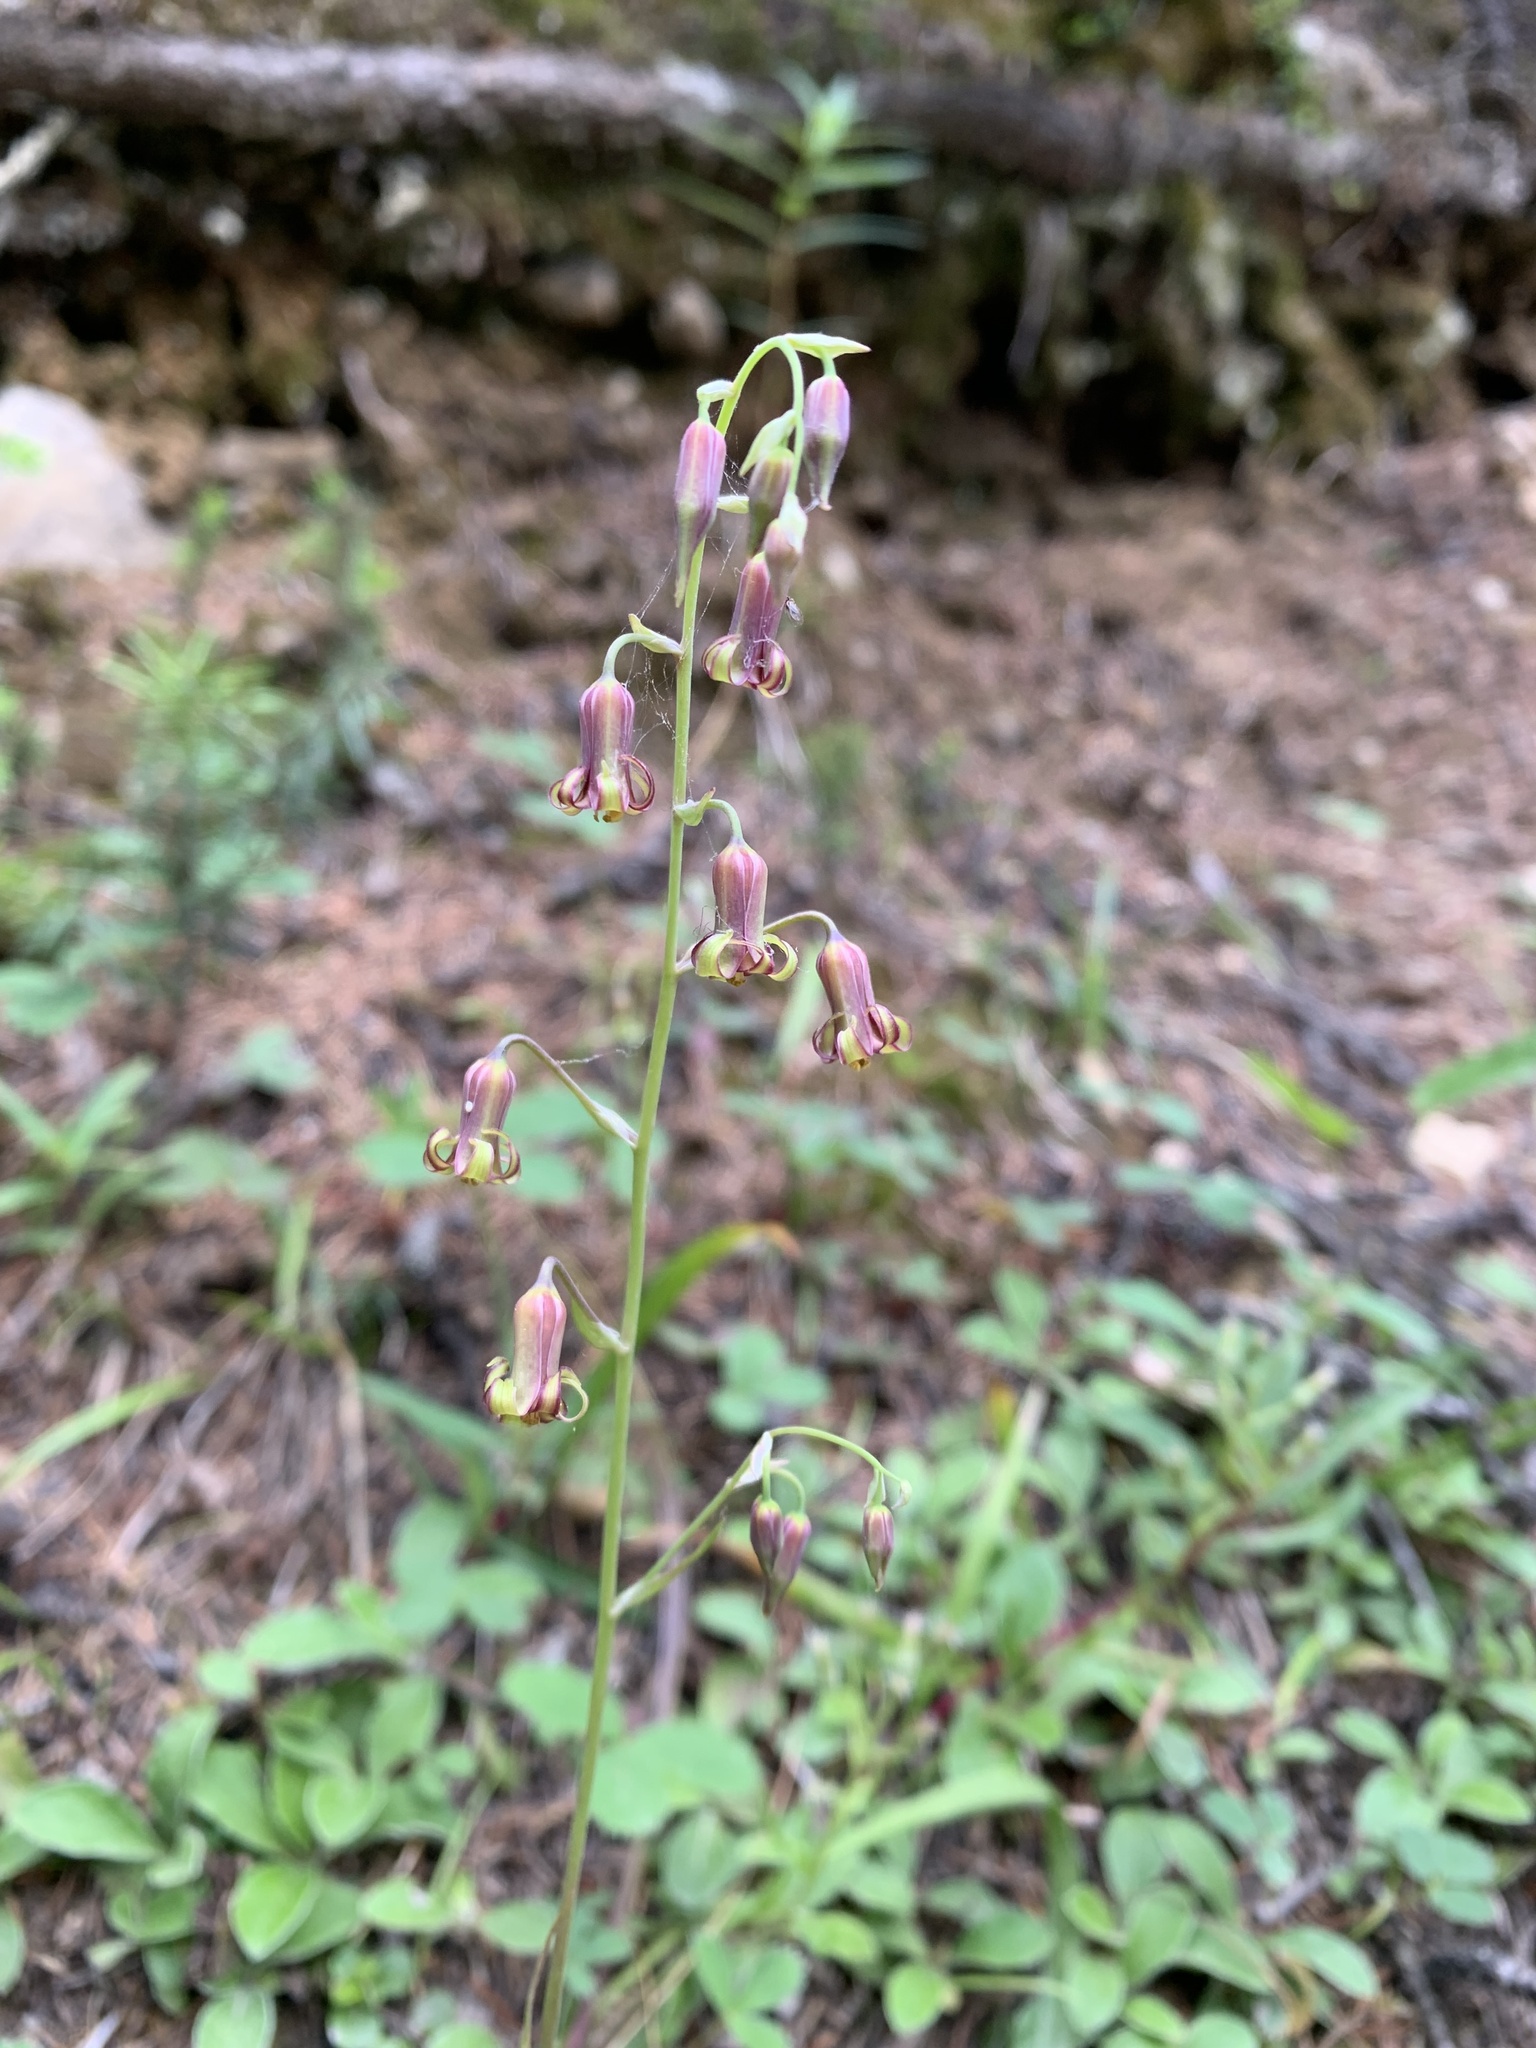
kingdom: Plantae
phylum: Tracheophyta
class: Liliopsida
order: Liliales
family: Melanthiaceae
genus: Anticlea
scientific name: Anticlea occidentalis
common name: Bronze-bells
